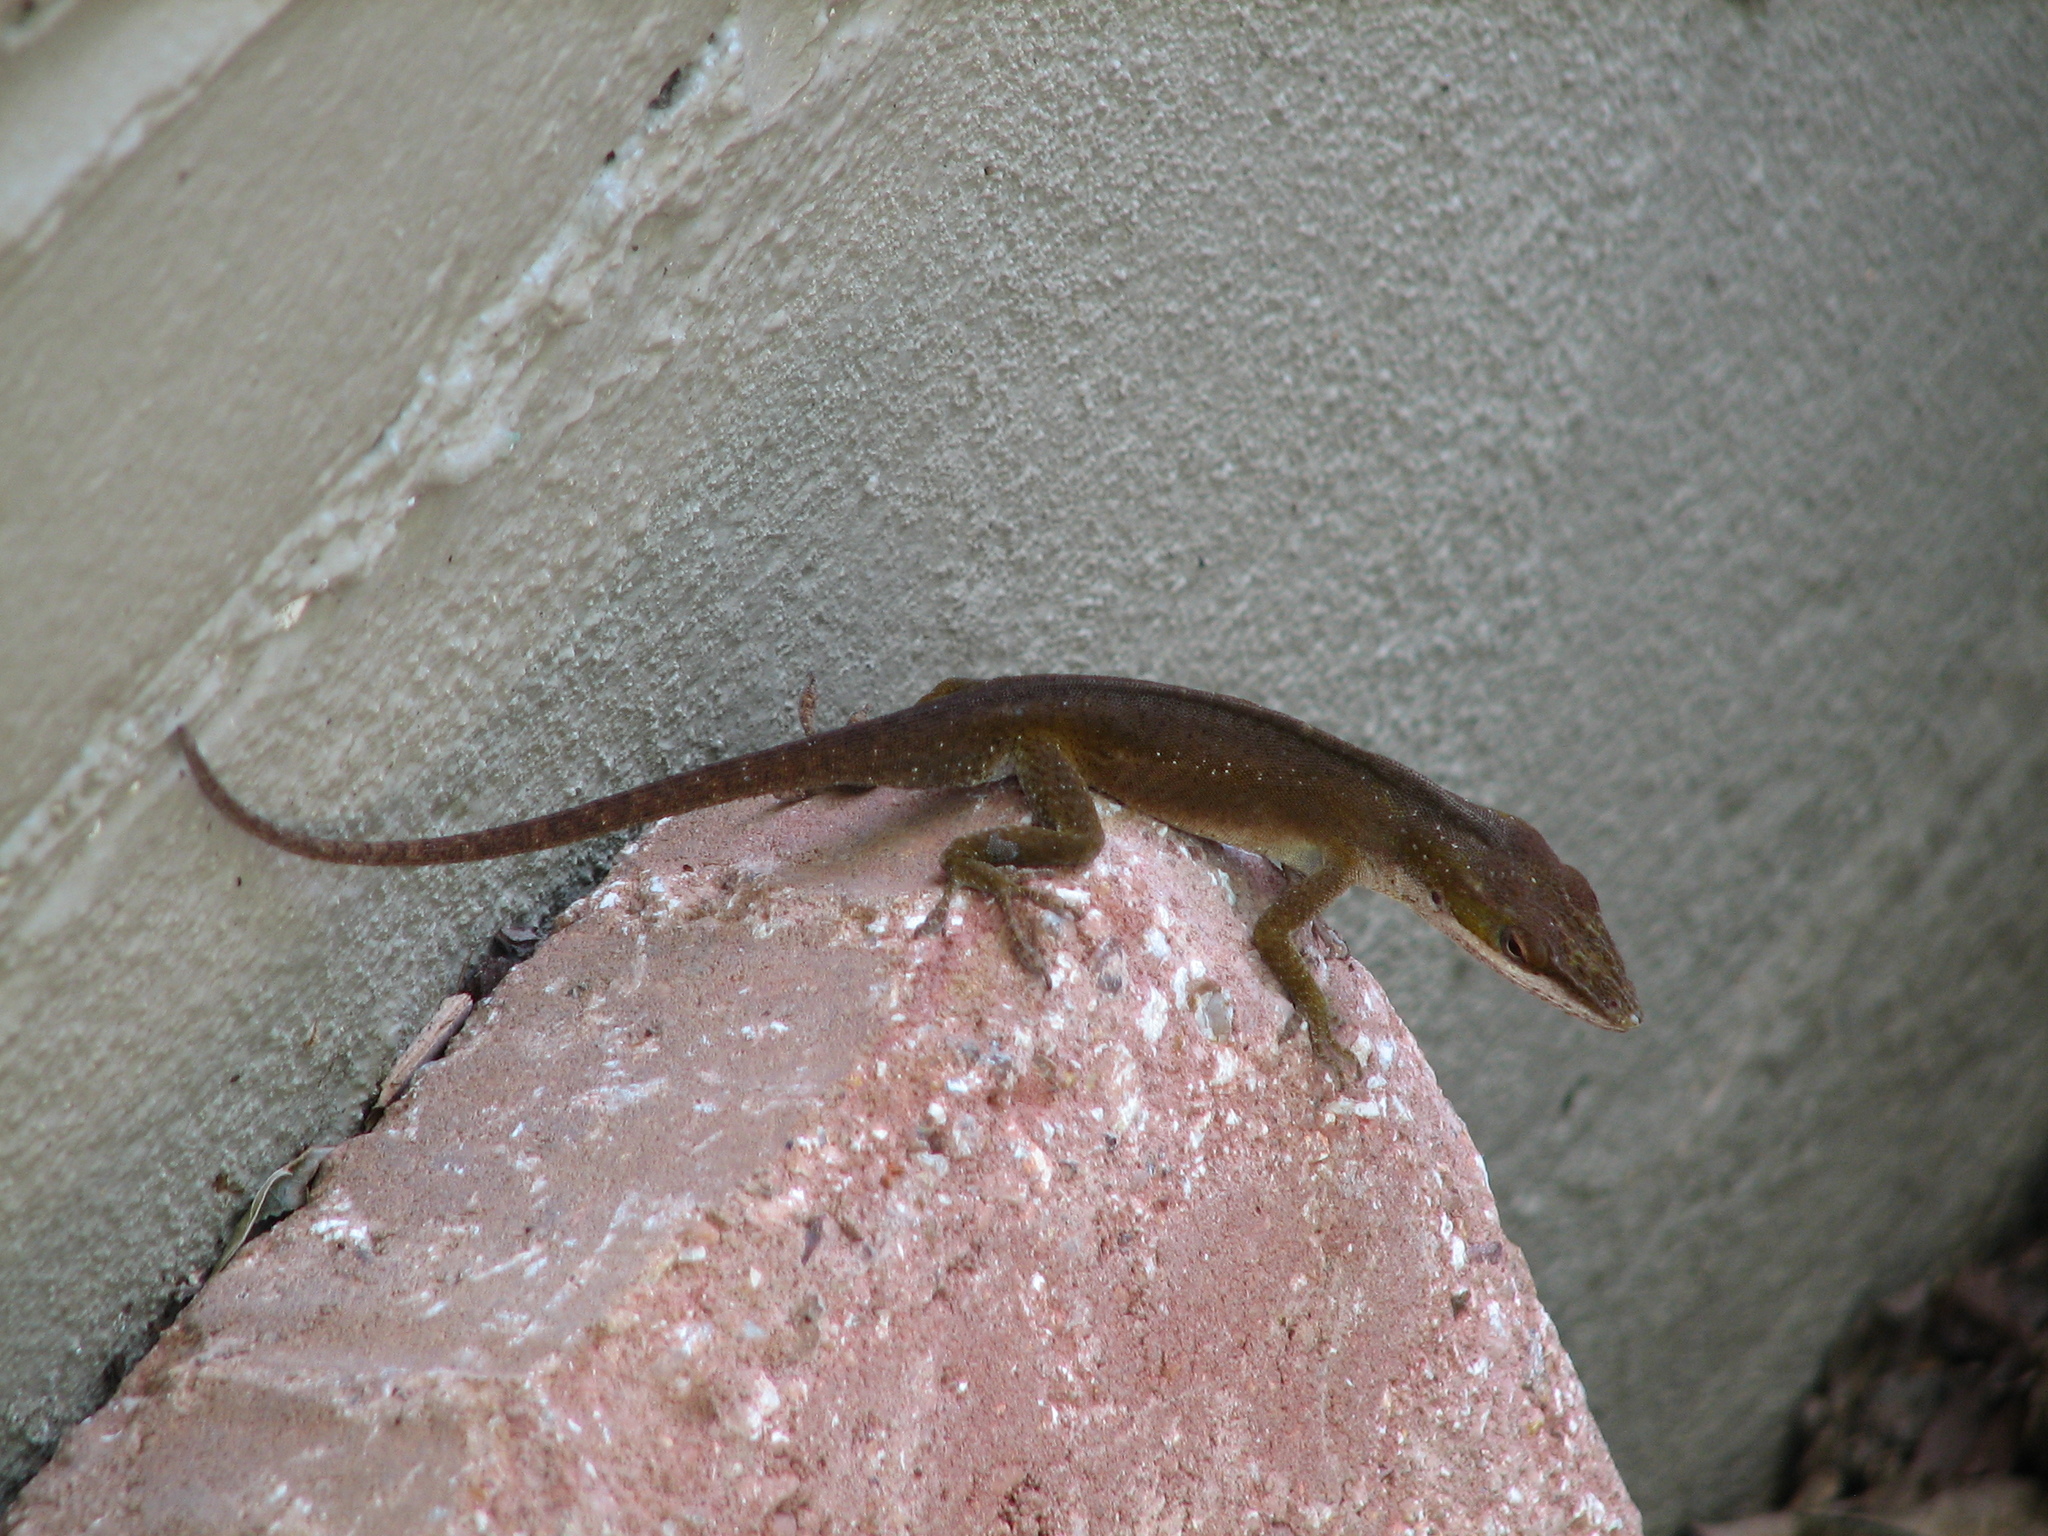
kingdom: Animalia
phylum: Chordata
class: Squamata
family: Dactyloidae
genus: Anolis
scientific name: Anolis carolinensis
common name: Green anole
